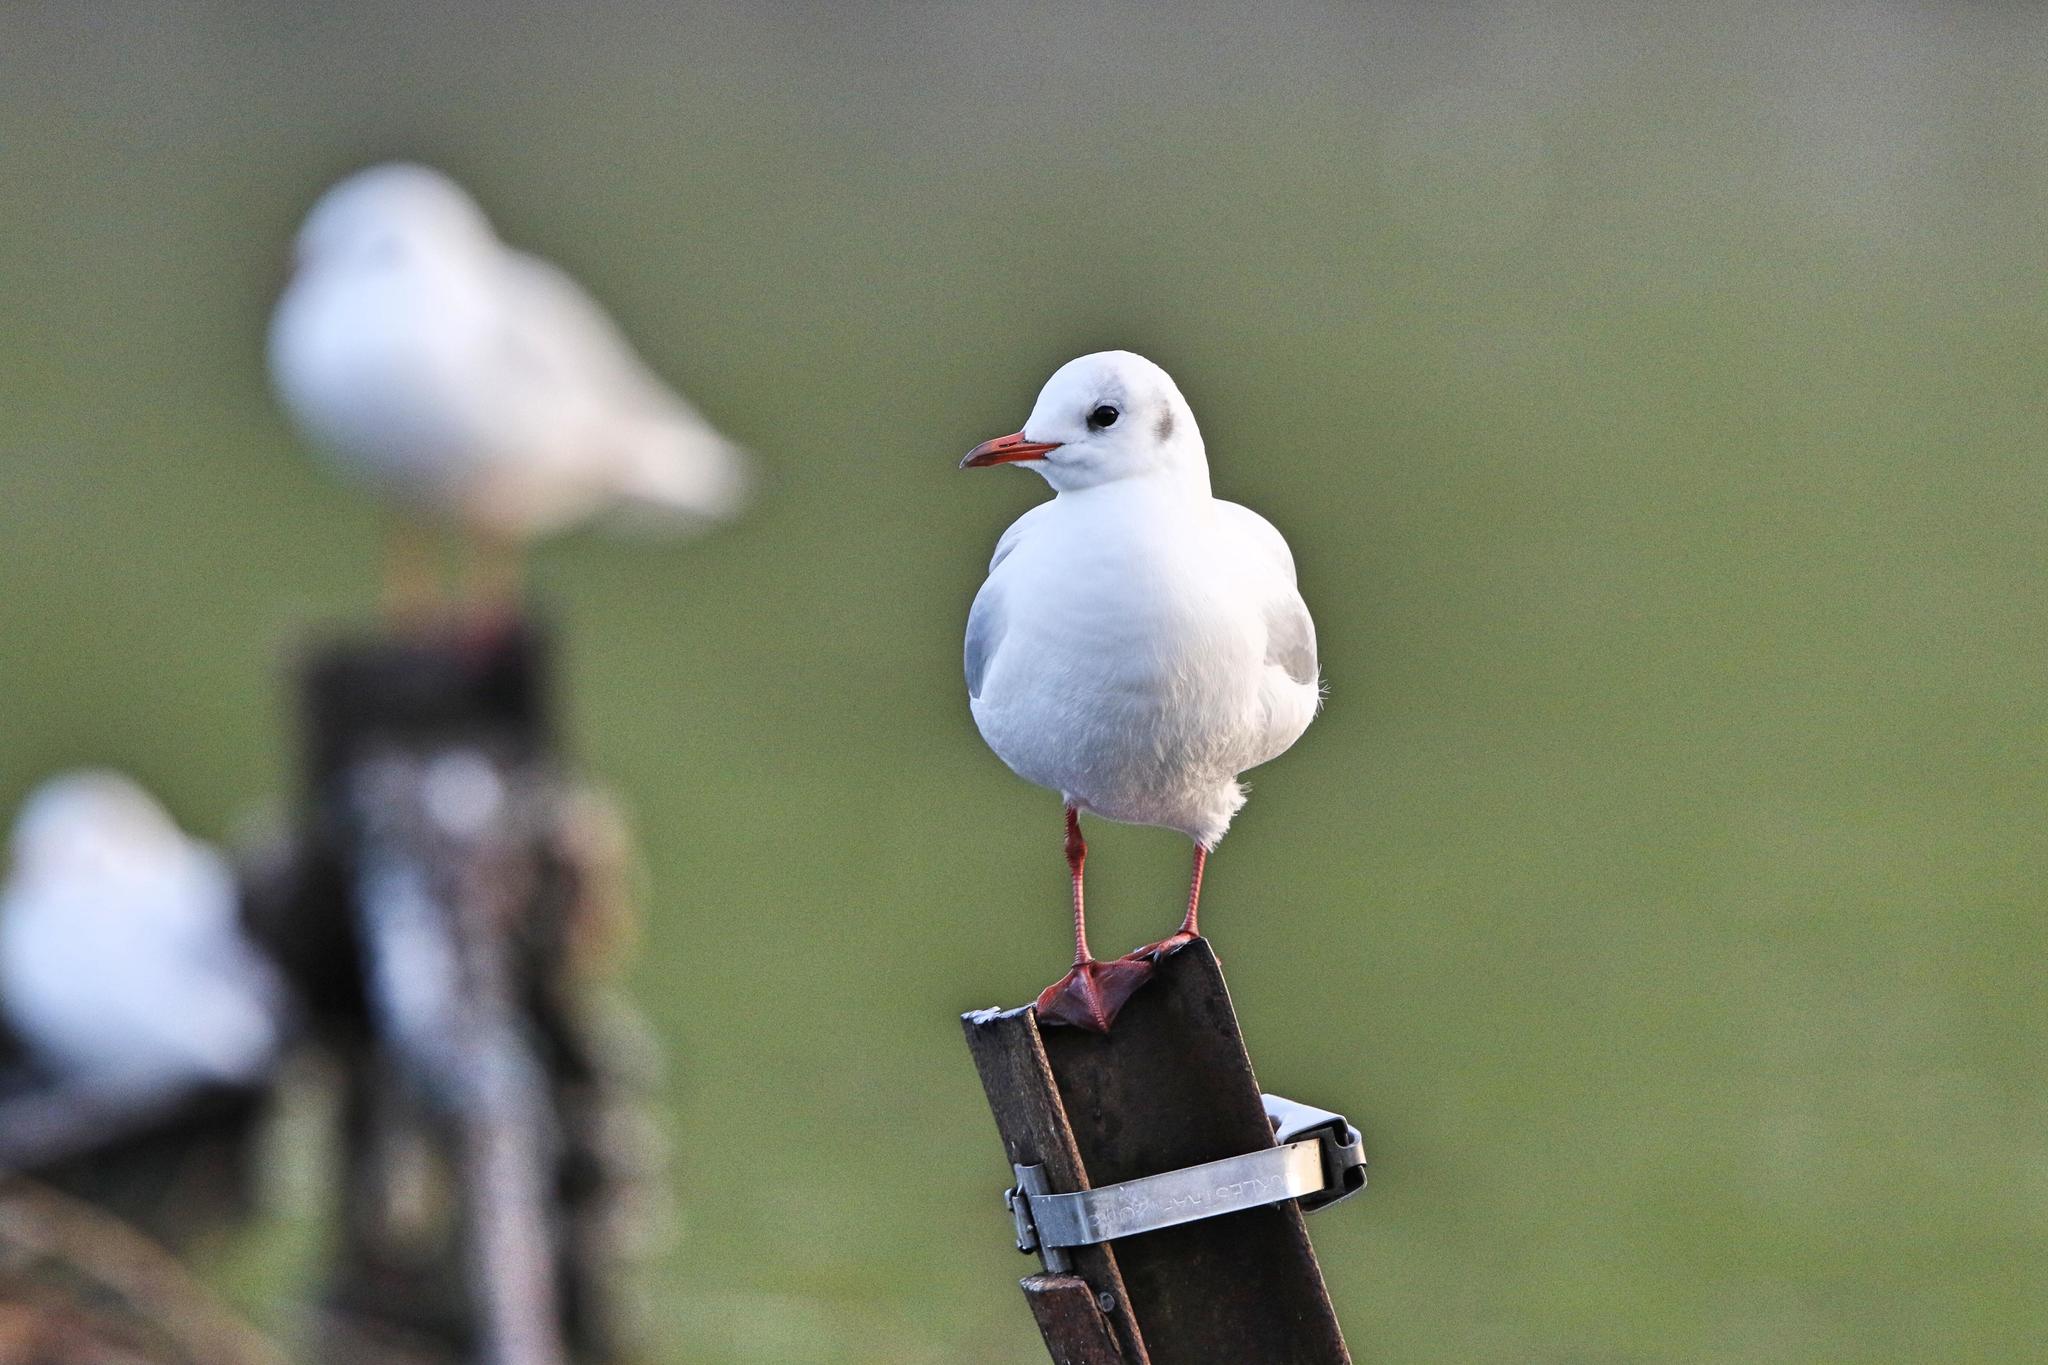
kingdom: Animalia
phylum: Chordata
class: Aves
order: Charadriiformes
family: Laridae
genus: Chroicocephalus
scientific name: Chroicocephalus ridibundus
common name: Black-headed gull
